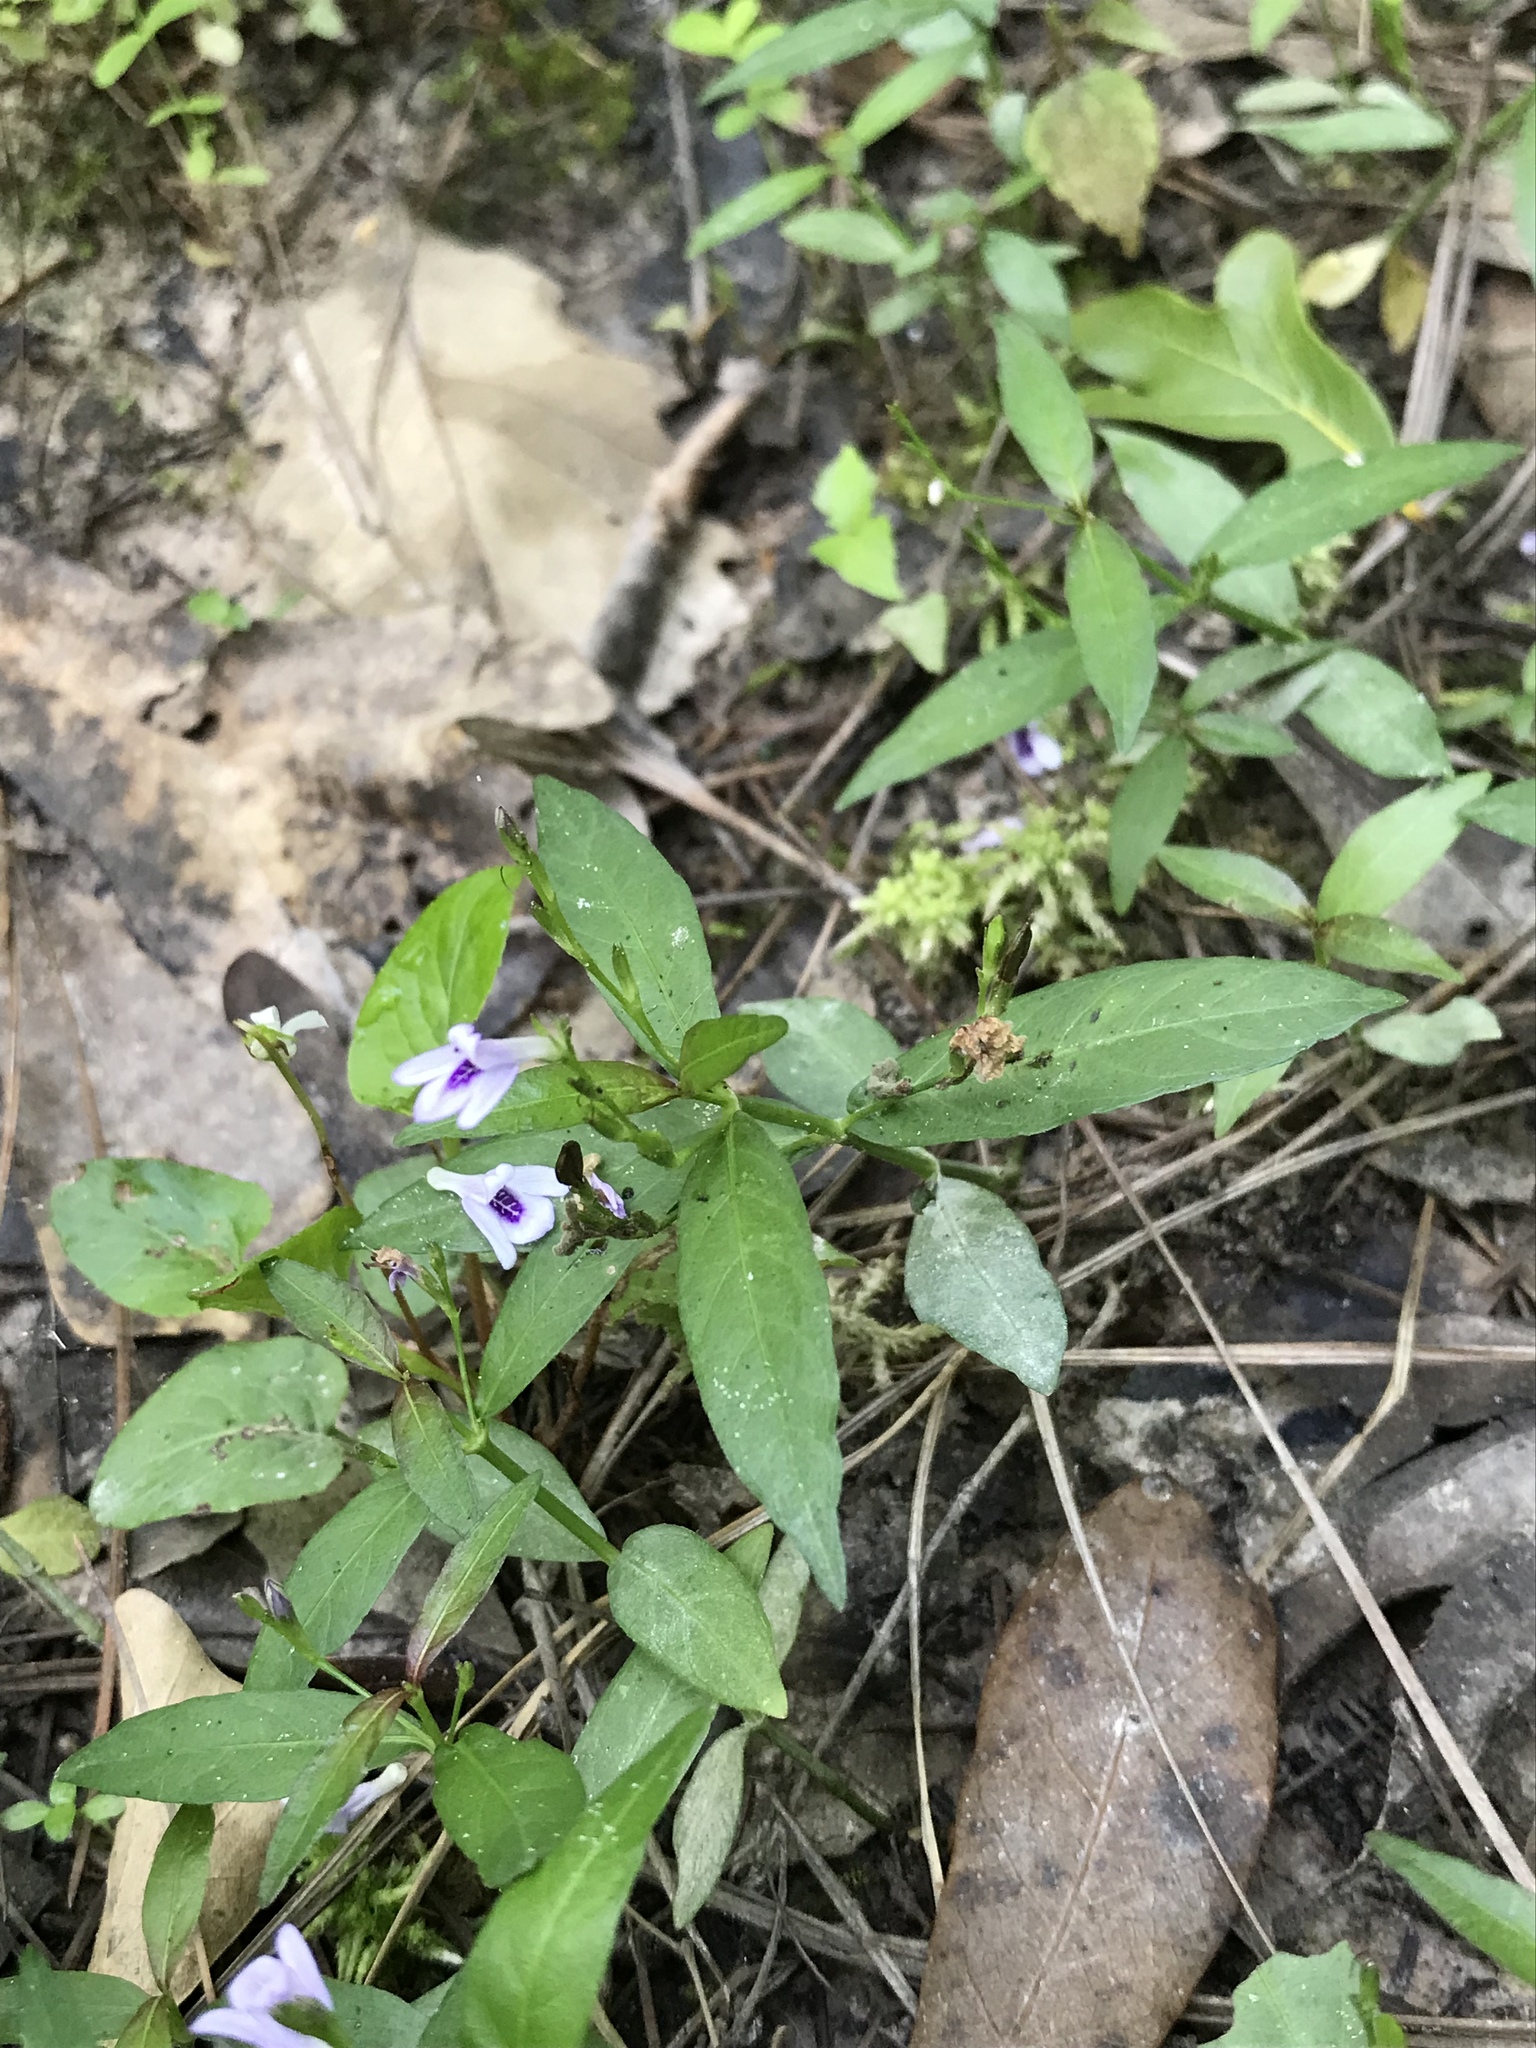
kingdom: Plantae
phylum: Tracheophyta
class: Magnoliopsida
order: Lamiales
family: Acanthaceae
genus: Justicia
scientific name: Justicia lanceolata
